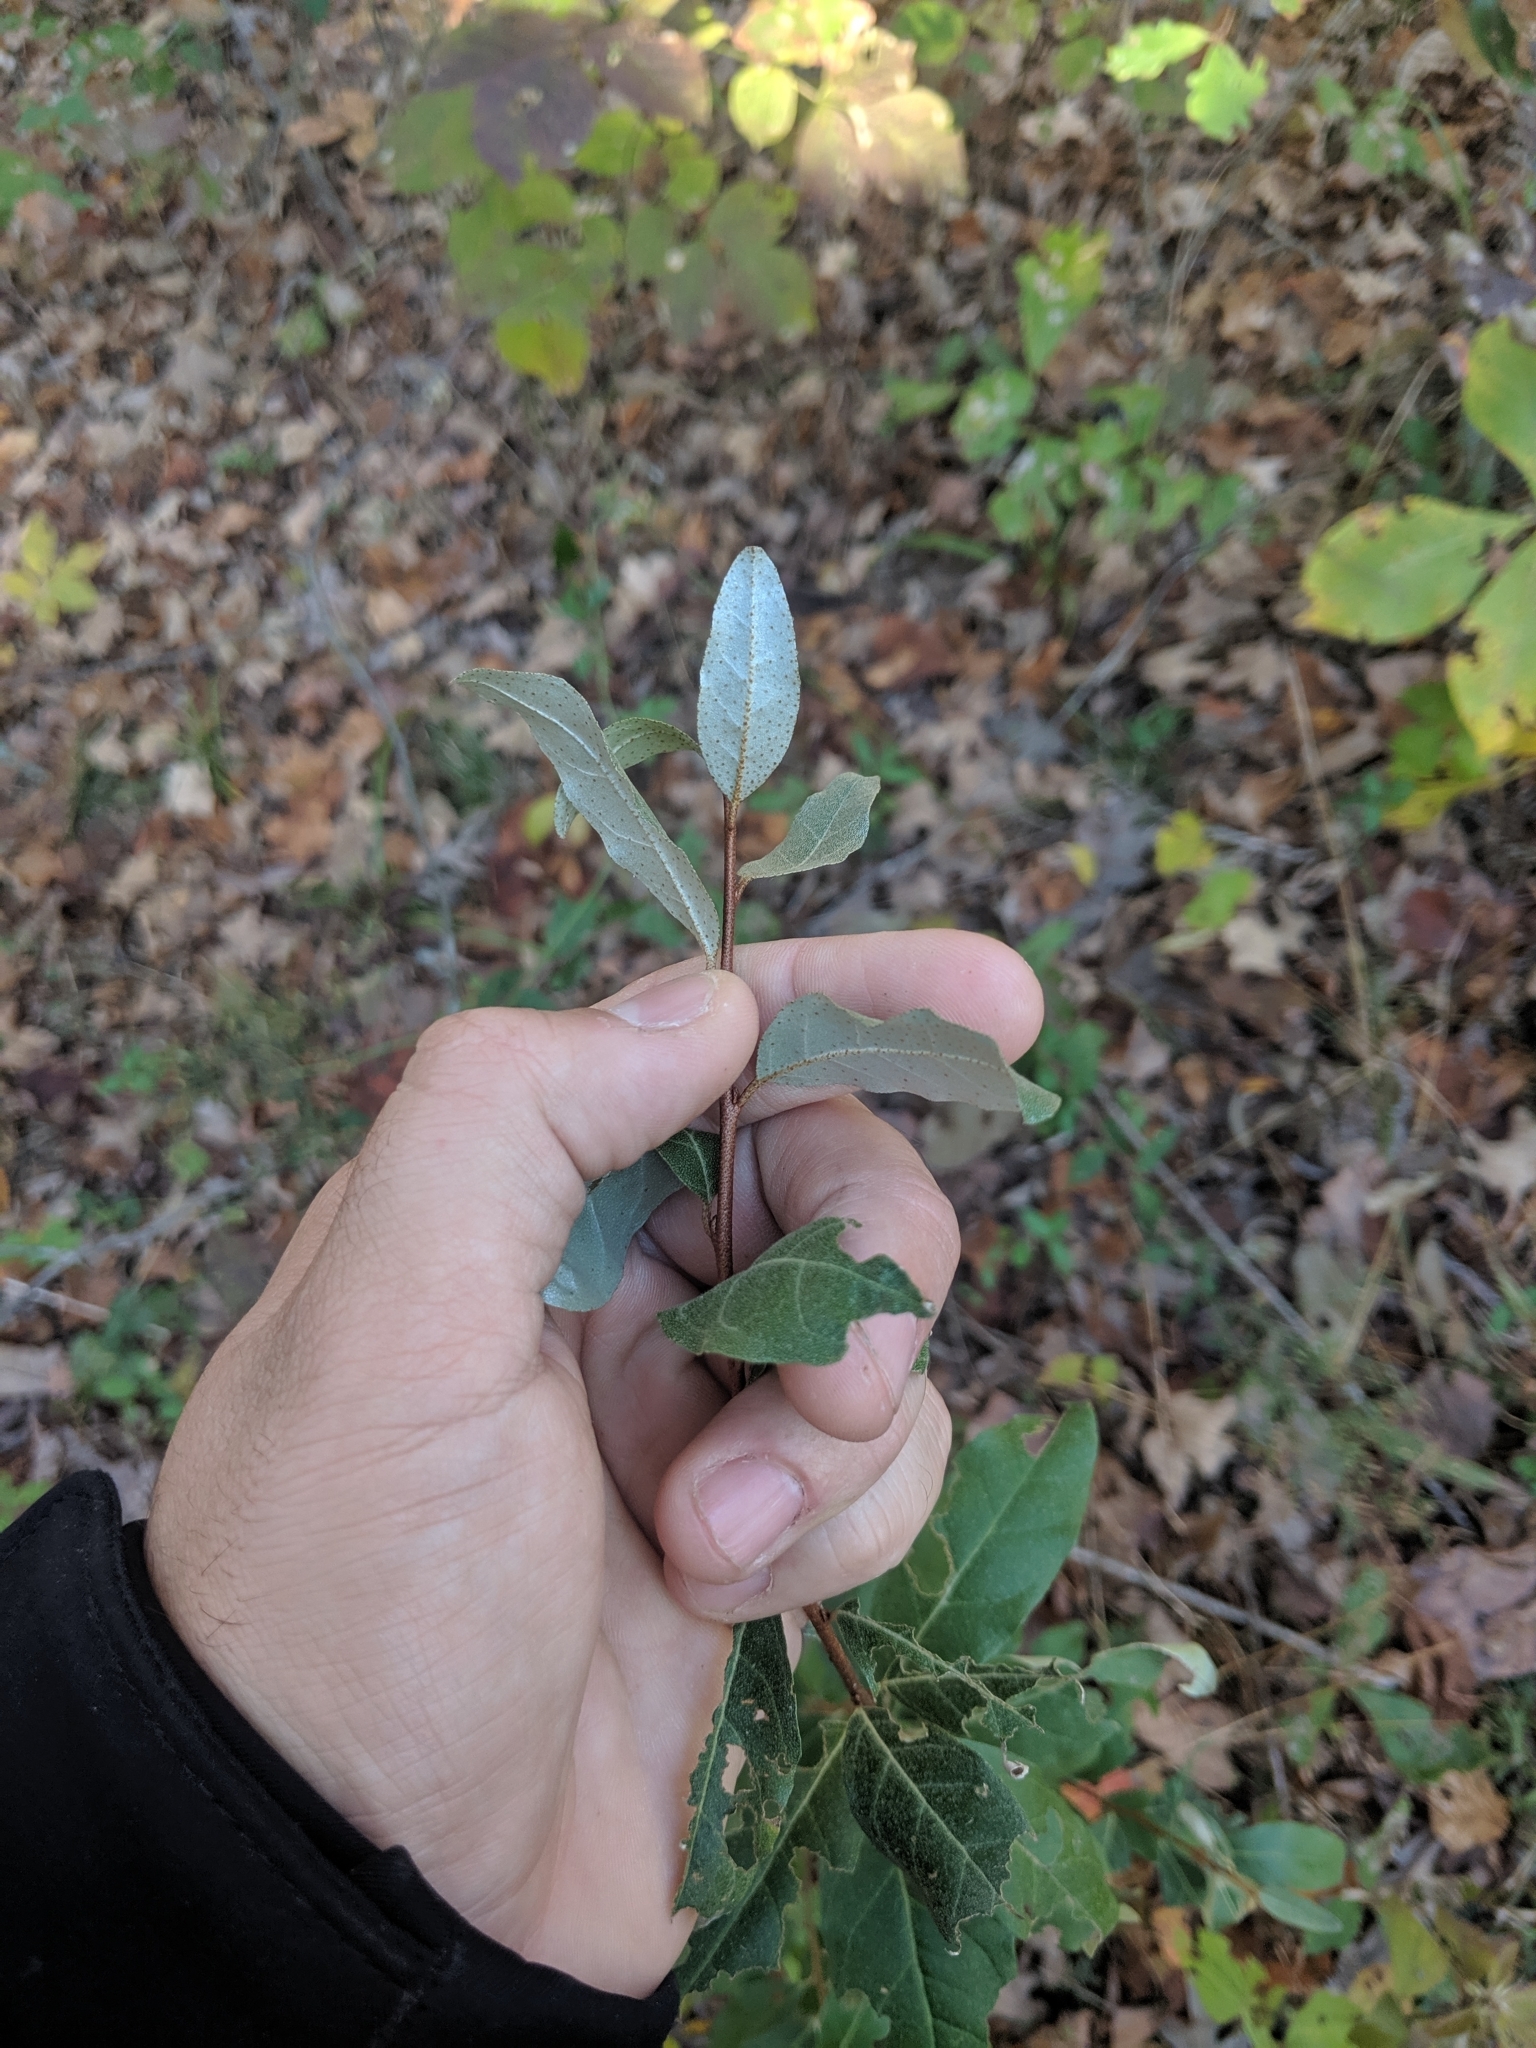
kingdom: Plantae
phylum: Tracheophyta
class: Magnoliopsida
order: Rosales
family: Elaeagnaceae
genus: Elaeagnus
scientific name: Elaeagnus umbellata
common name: Autumn olive
